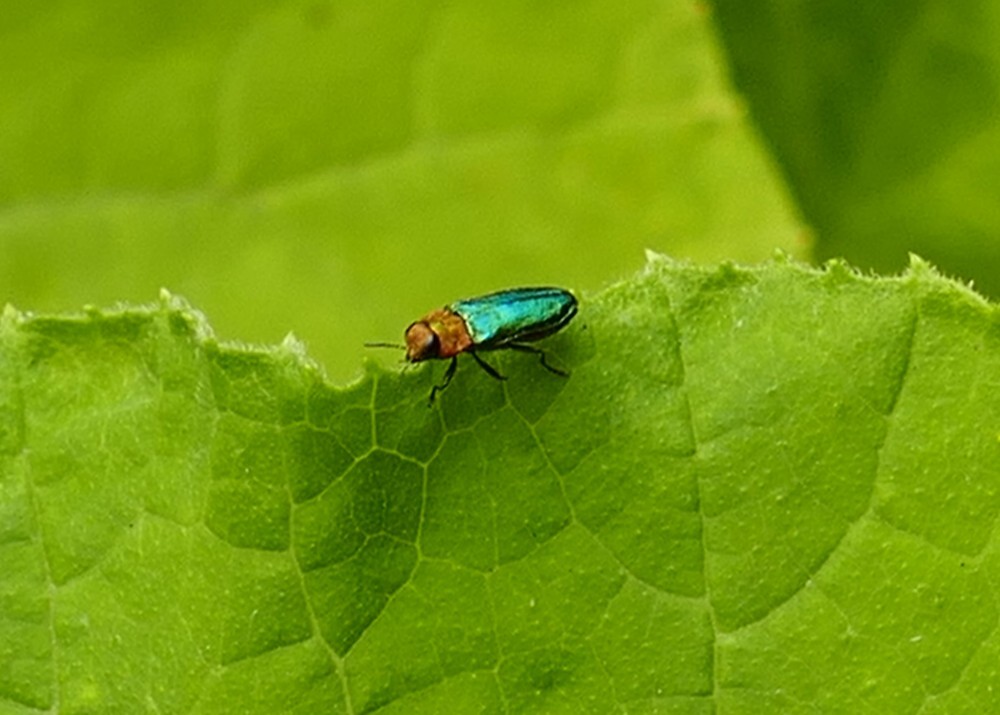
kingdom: Animalia
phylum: Arthropoda
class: Insecta
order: Coleoptera
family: Buprestidae
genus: Anthaxia
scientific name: Anthaxia nitidula
